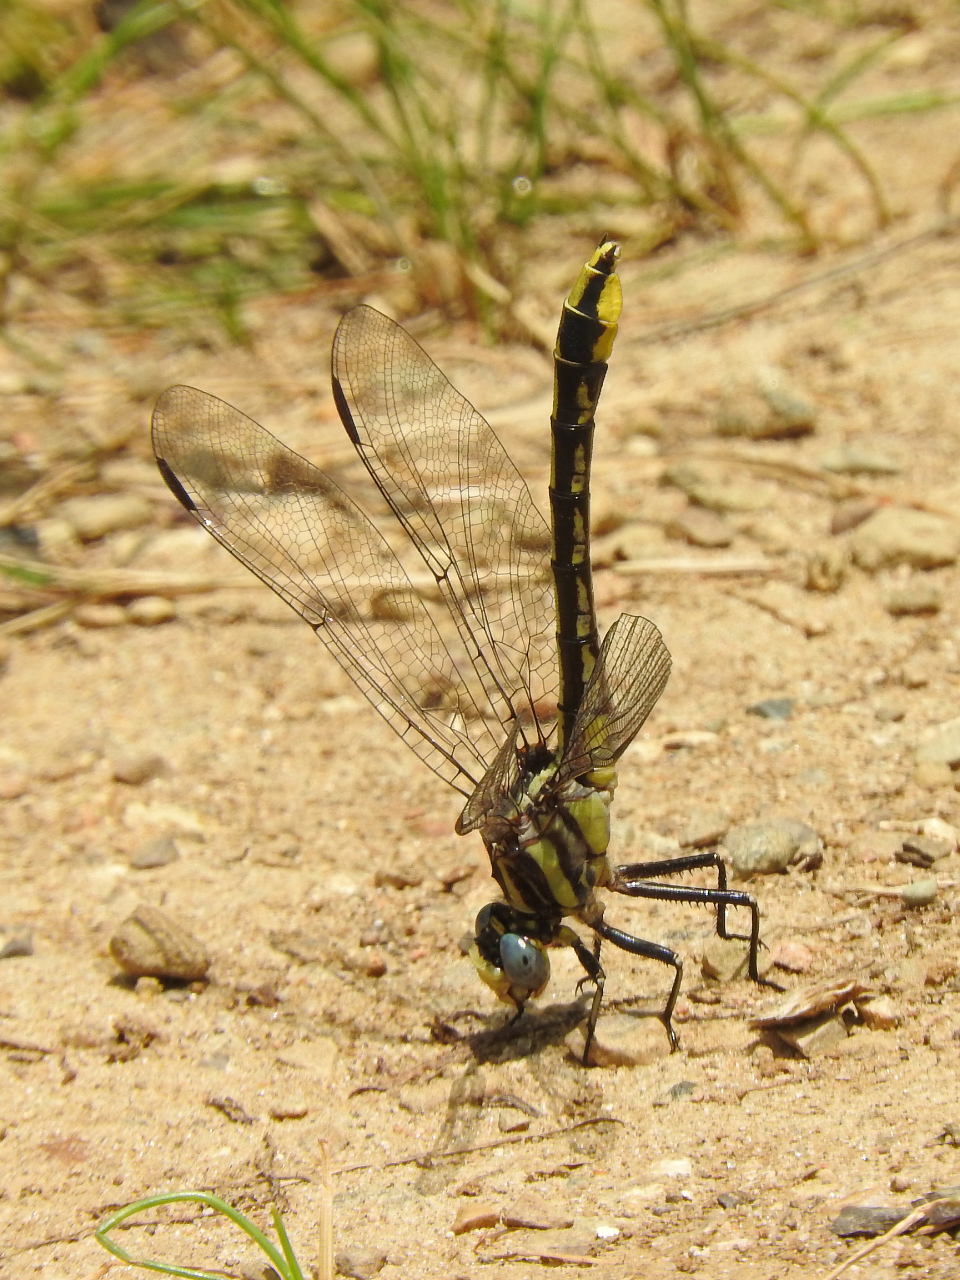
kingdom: Animalia
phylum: Arthropoda
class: Insecta
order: Odonata
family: Gomphidae
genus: Phanogomphus
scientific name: Phanogomphus graslinellus
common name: Pronghorn clubtail
